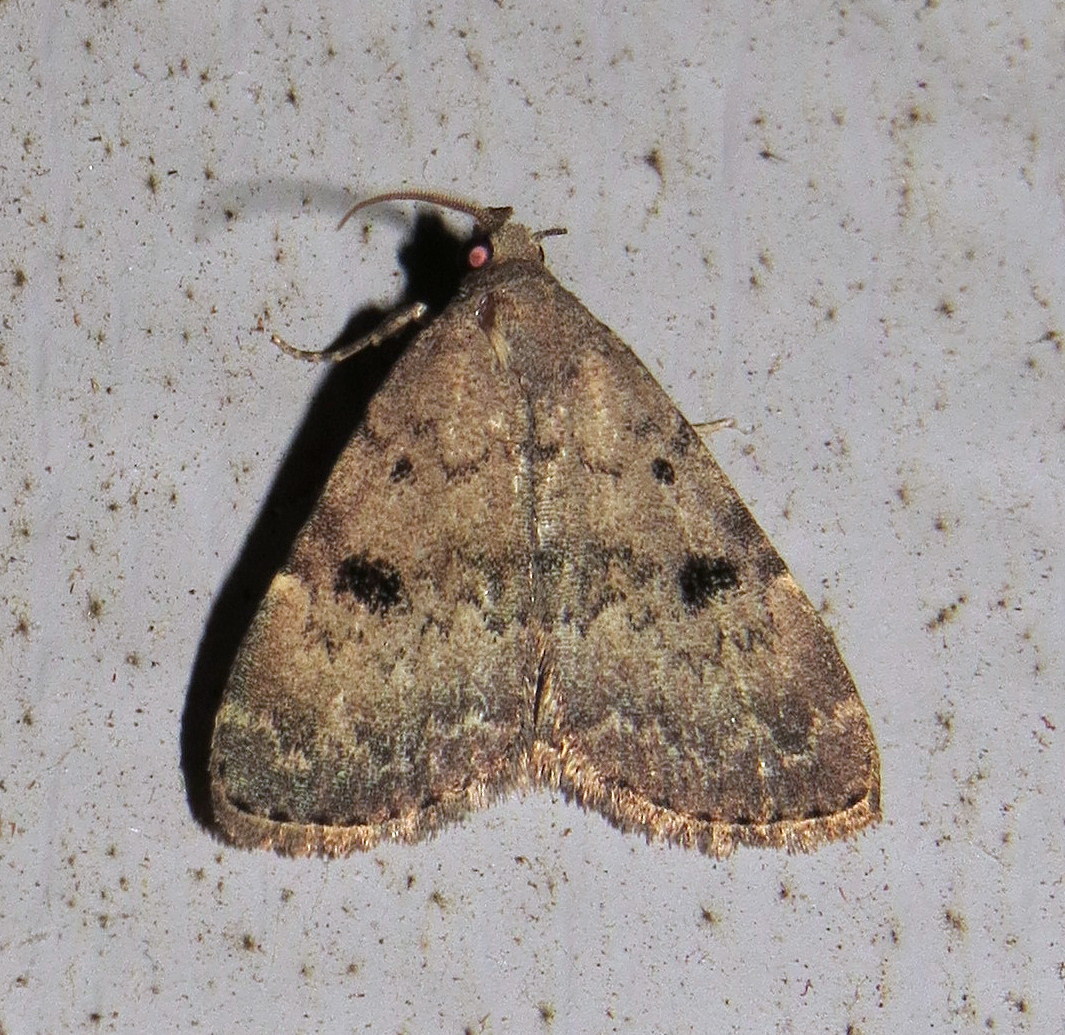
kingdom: Animalia
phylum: Arthropoda
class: Insecta
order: Lepidoptera
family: Erebidae
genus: Idia
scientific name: Idia aemula
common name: Common idia moth
